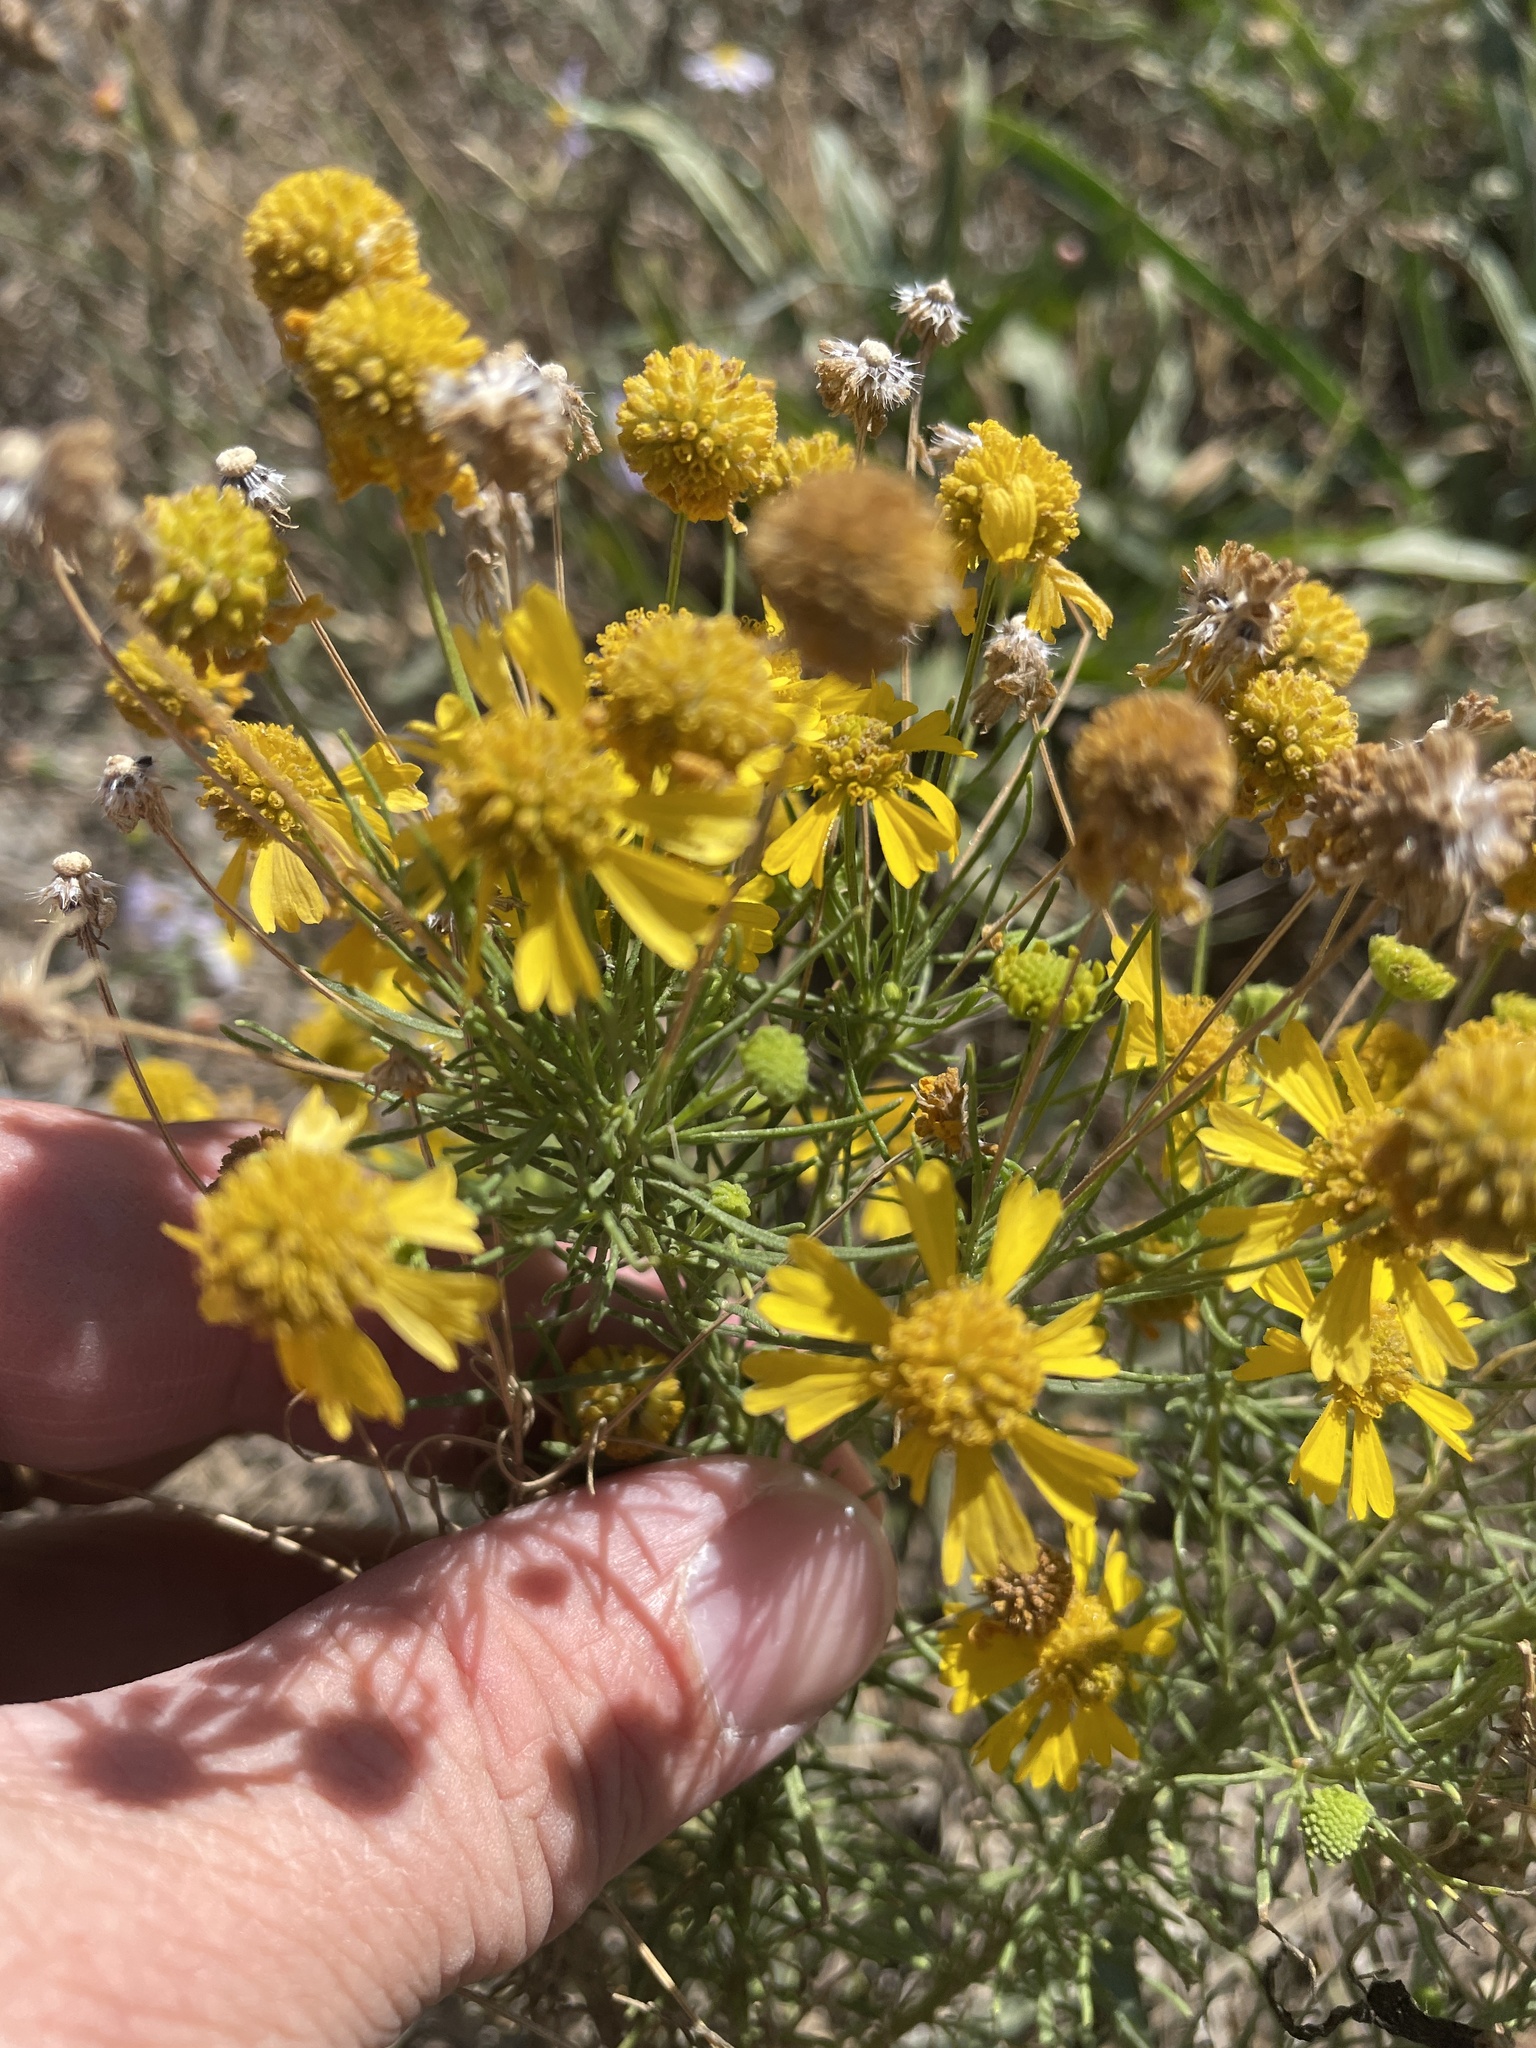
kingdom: Plantae
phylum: Tracheophyta
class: Magnoliopsida
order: Asterales
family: Asteraceae
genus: Helenium
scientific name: Helenium amarum
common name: Bitter sneezeweed
